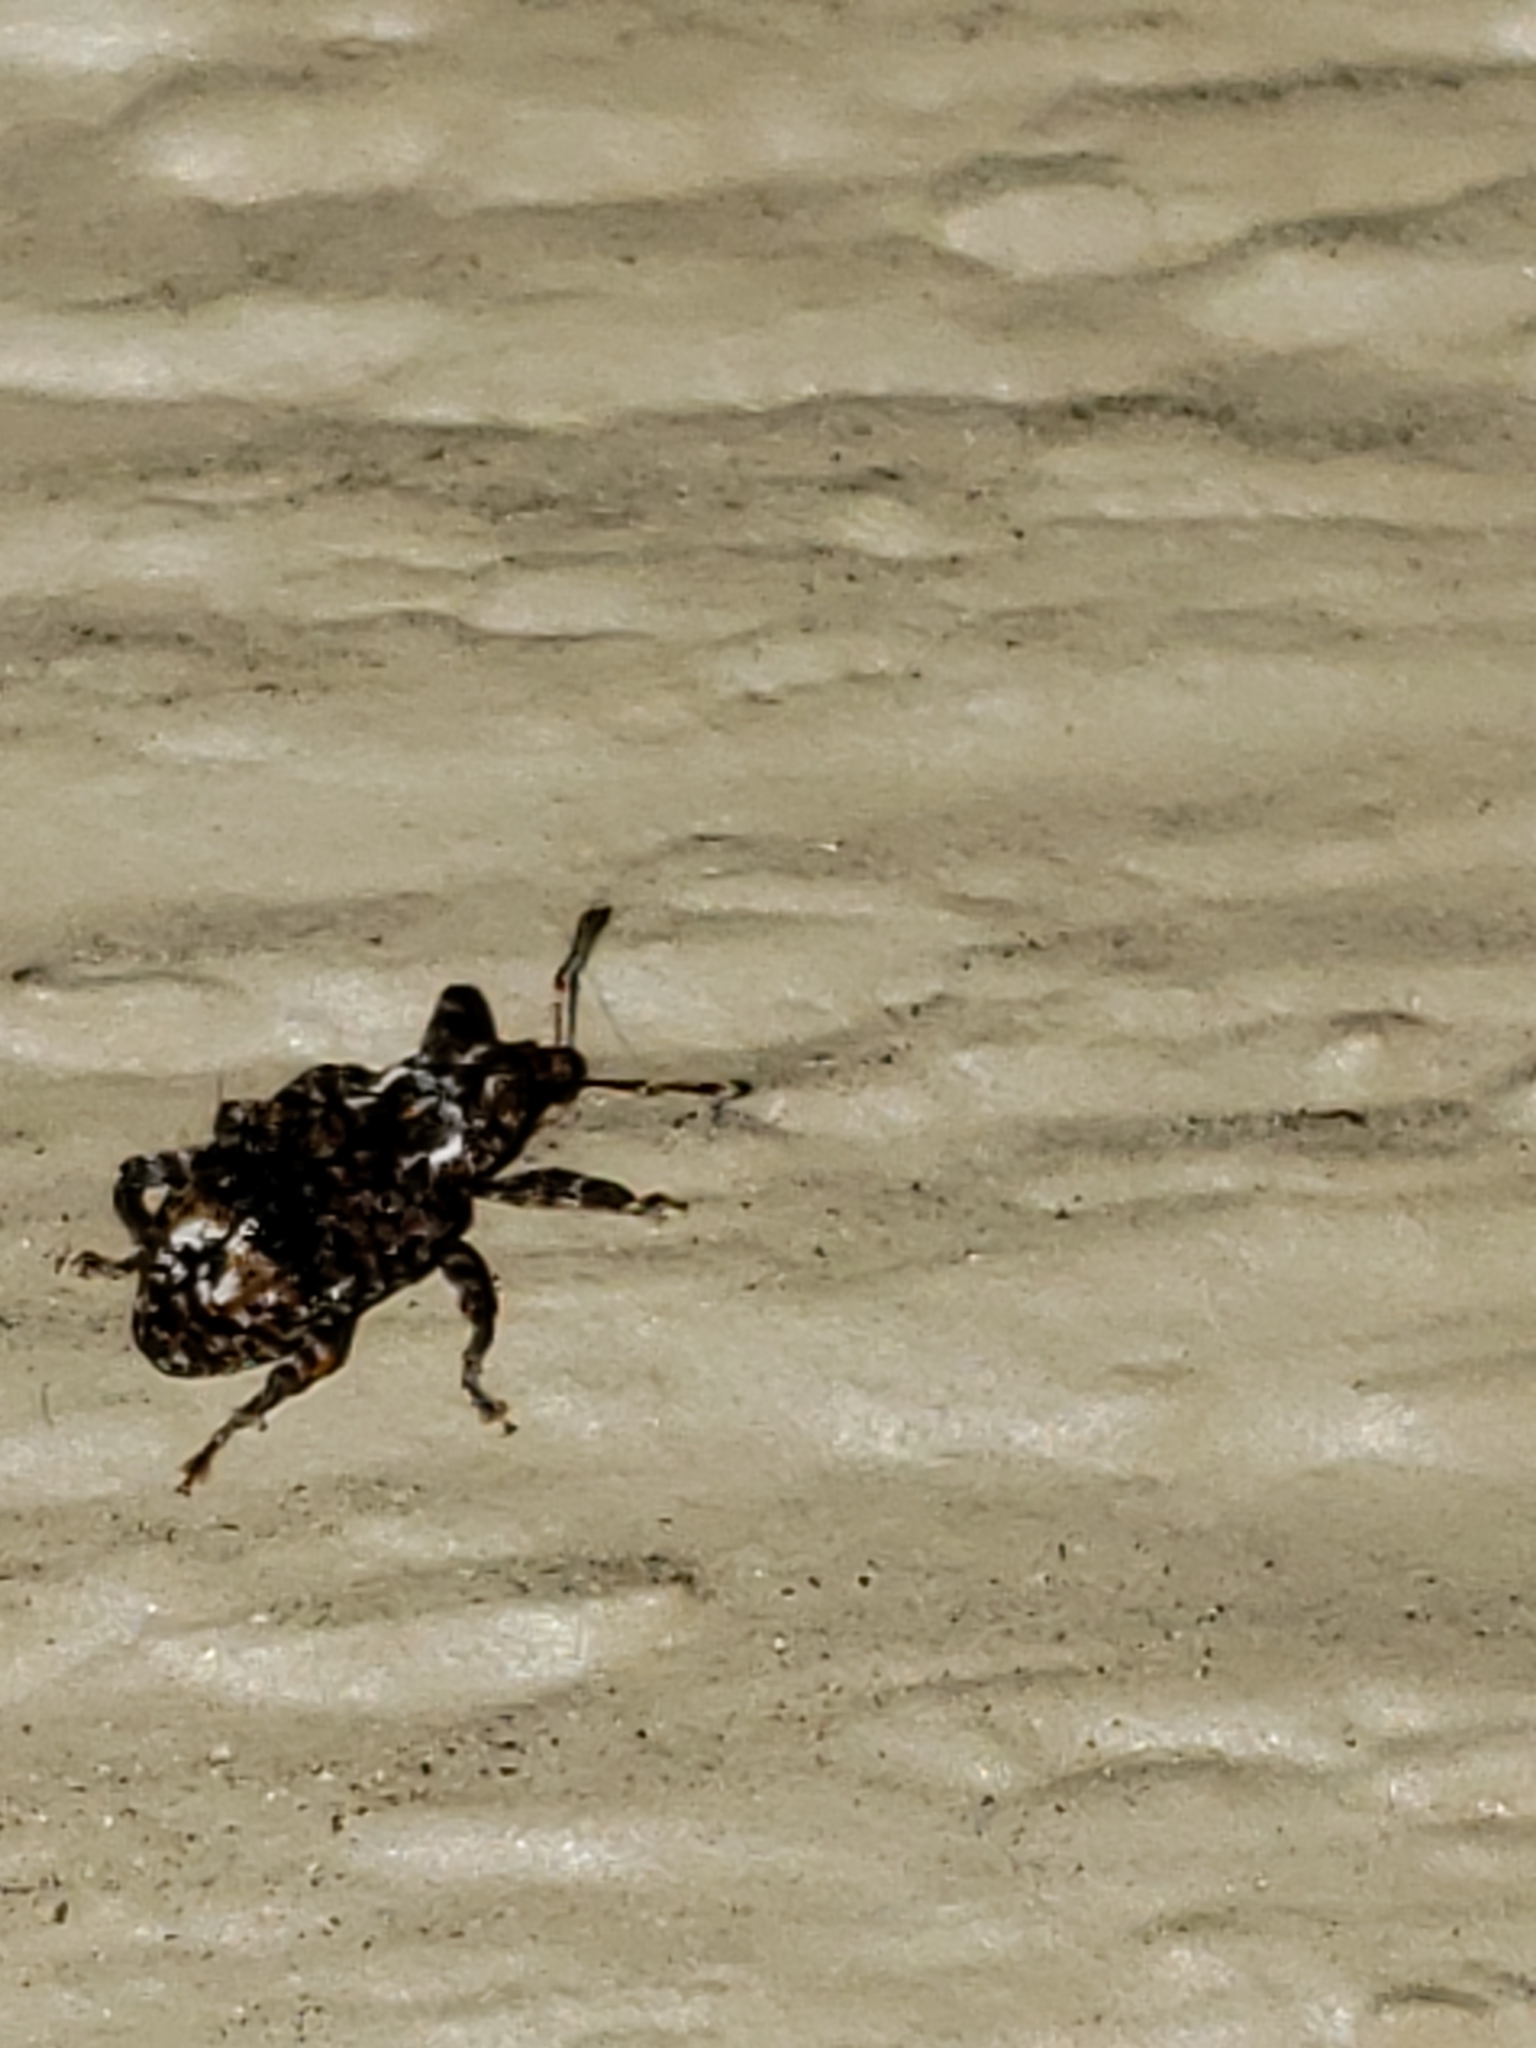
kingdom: Animalia
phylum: Arthropoda
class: Insecta
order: Coleoptera
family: Curculionidae
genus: Conotrachelus
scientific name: Conotrachelus nenuphar
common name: Plum curculio
